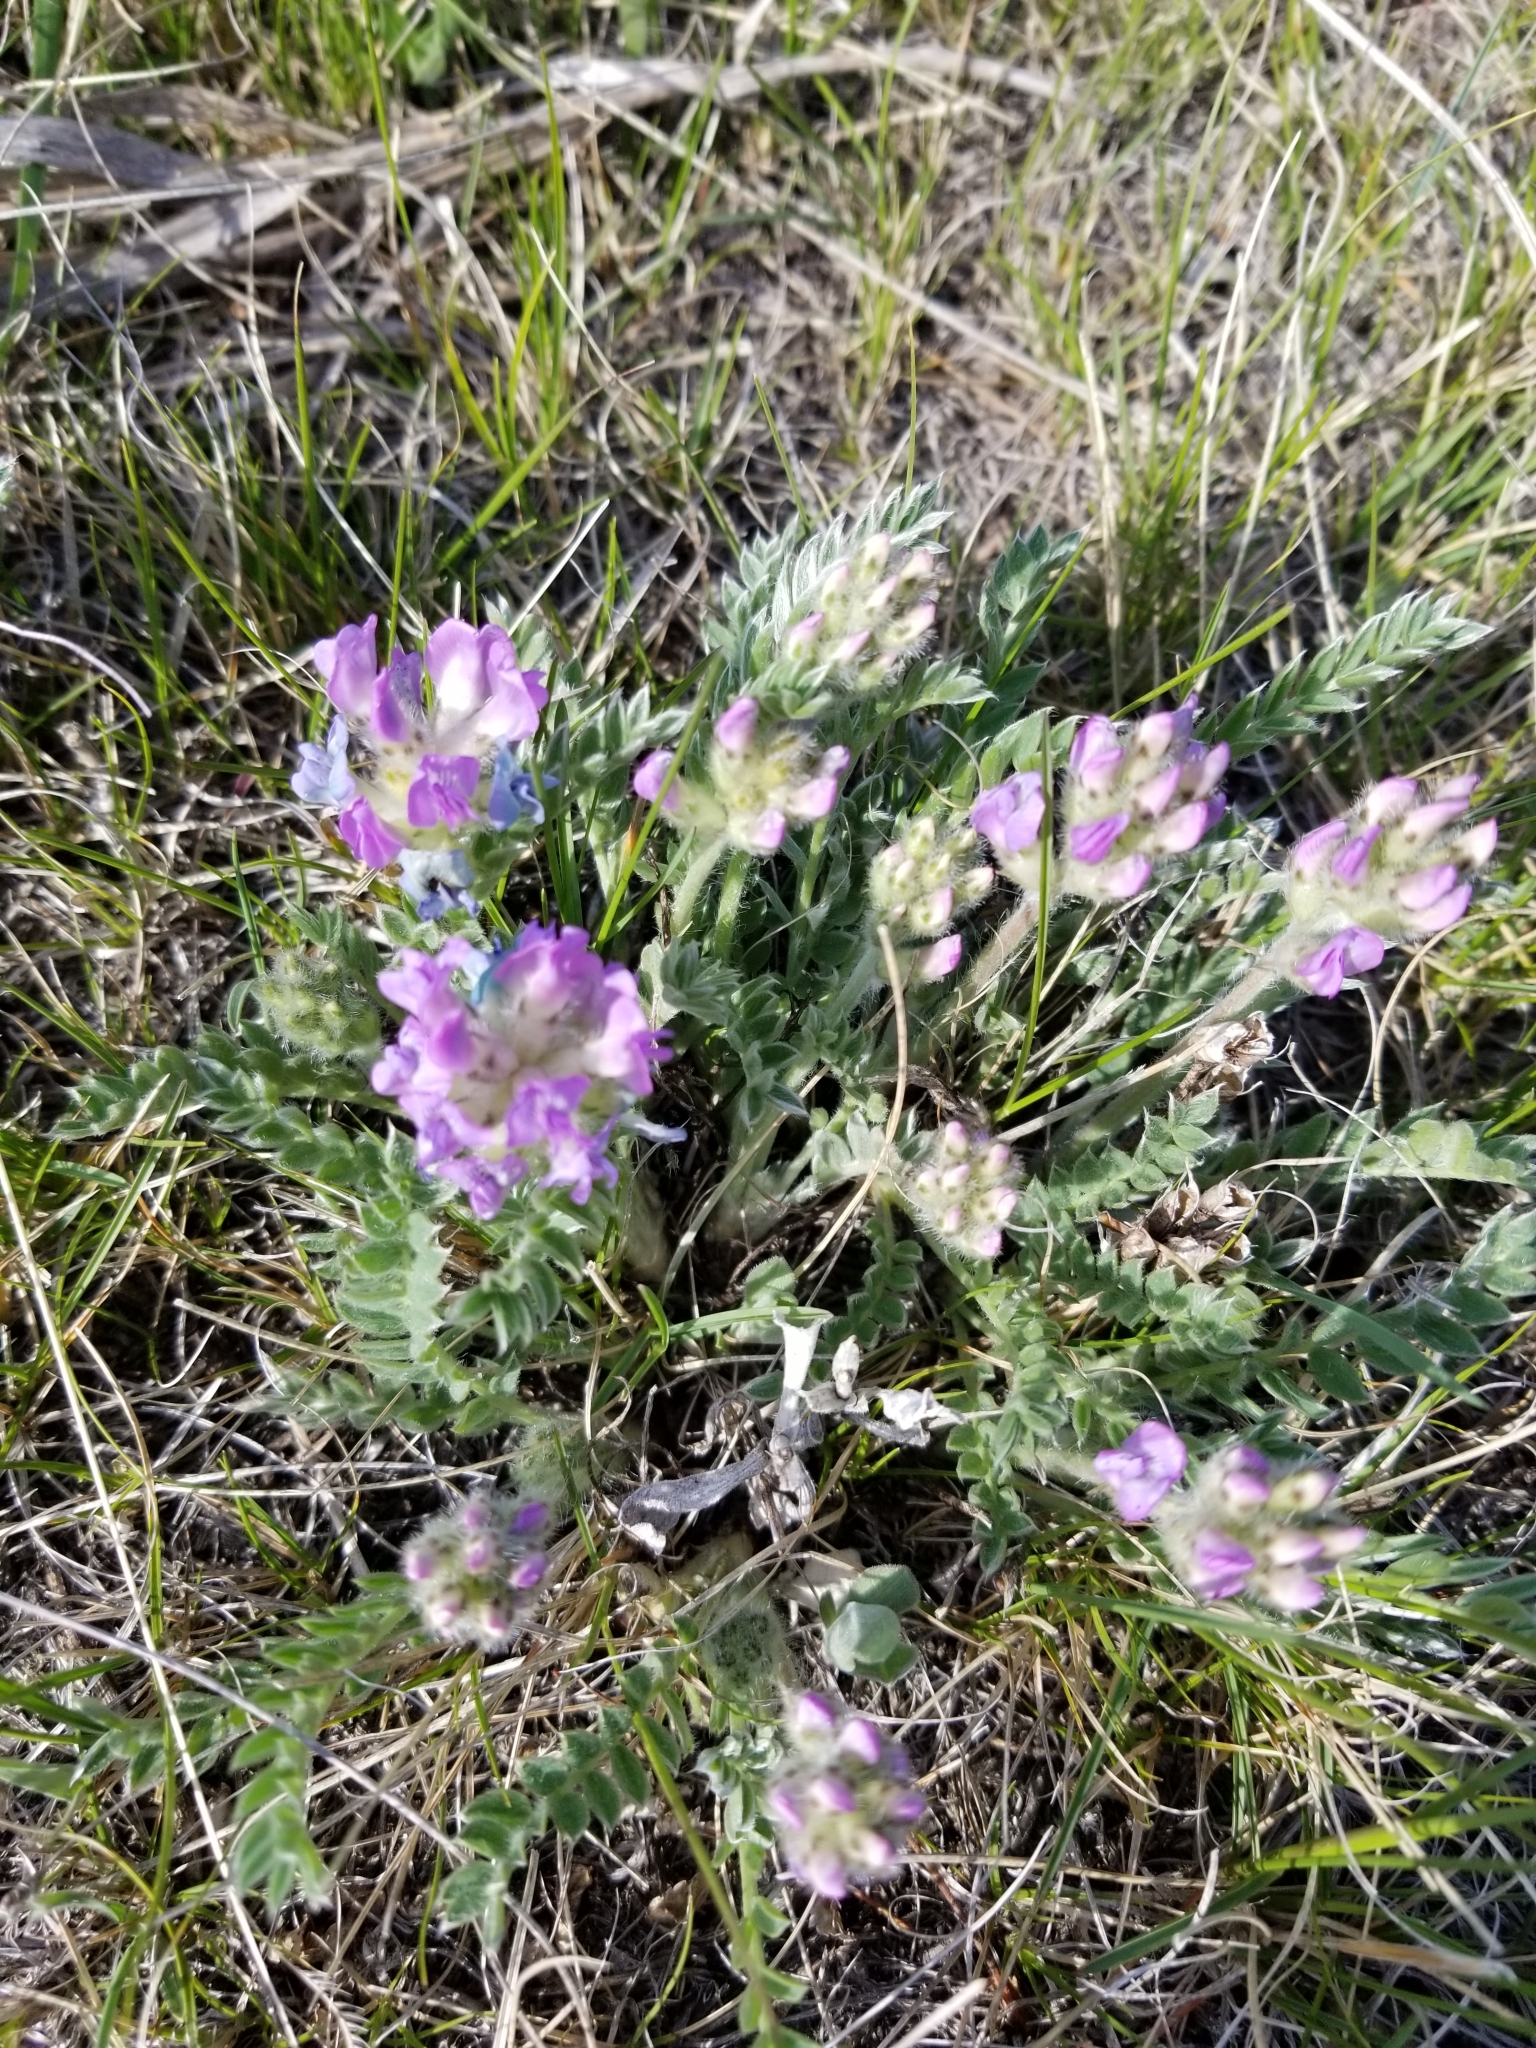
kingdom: Plantae
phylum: Tracheophyta
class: Magnoliopsida
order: Fabales
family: Fabaceae
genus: Oxytropis
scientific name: Oxytropis lambertii
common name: Purple locoweed
